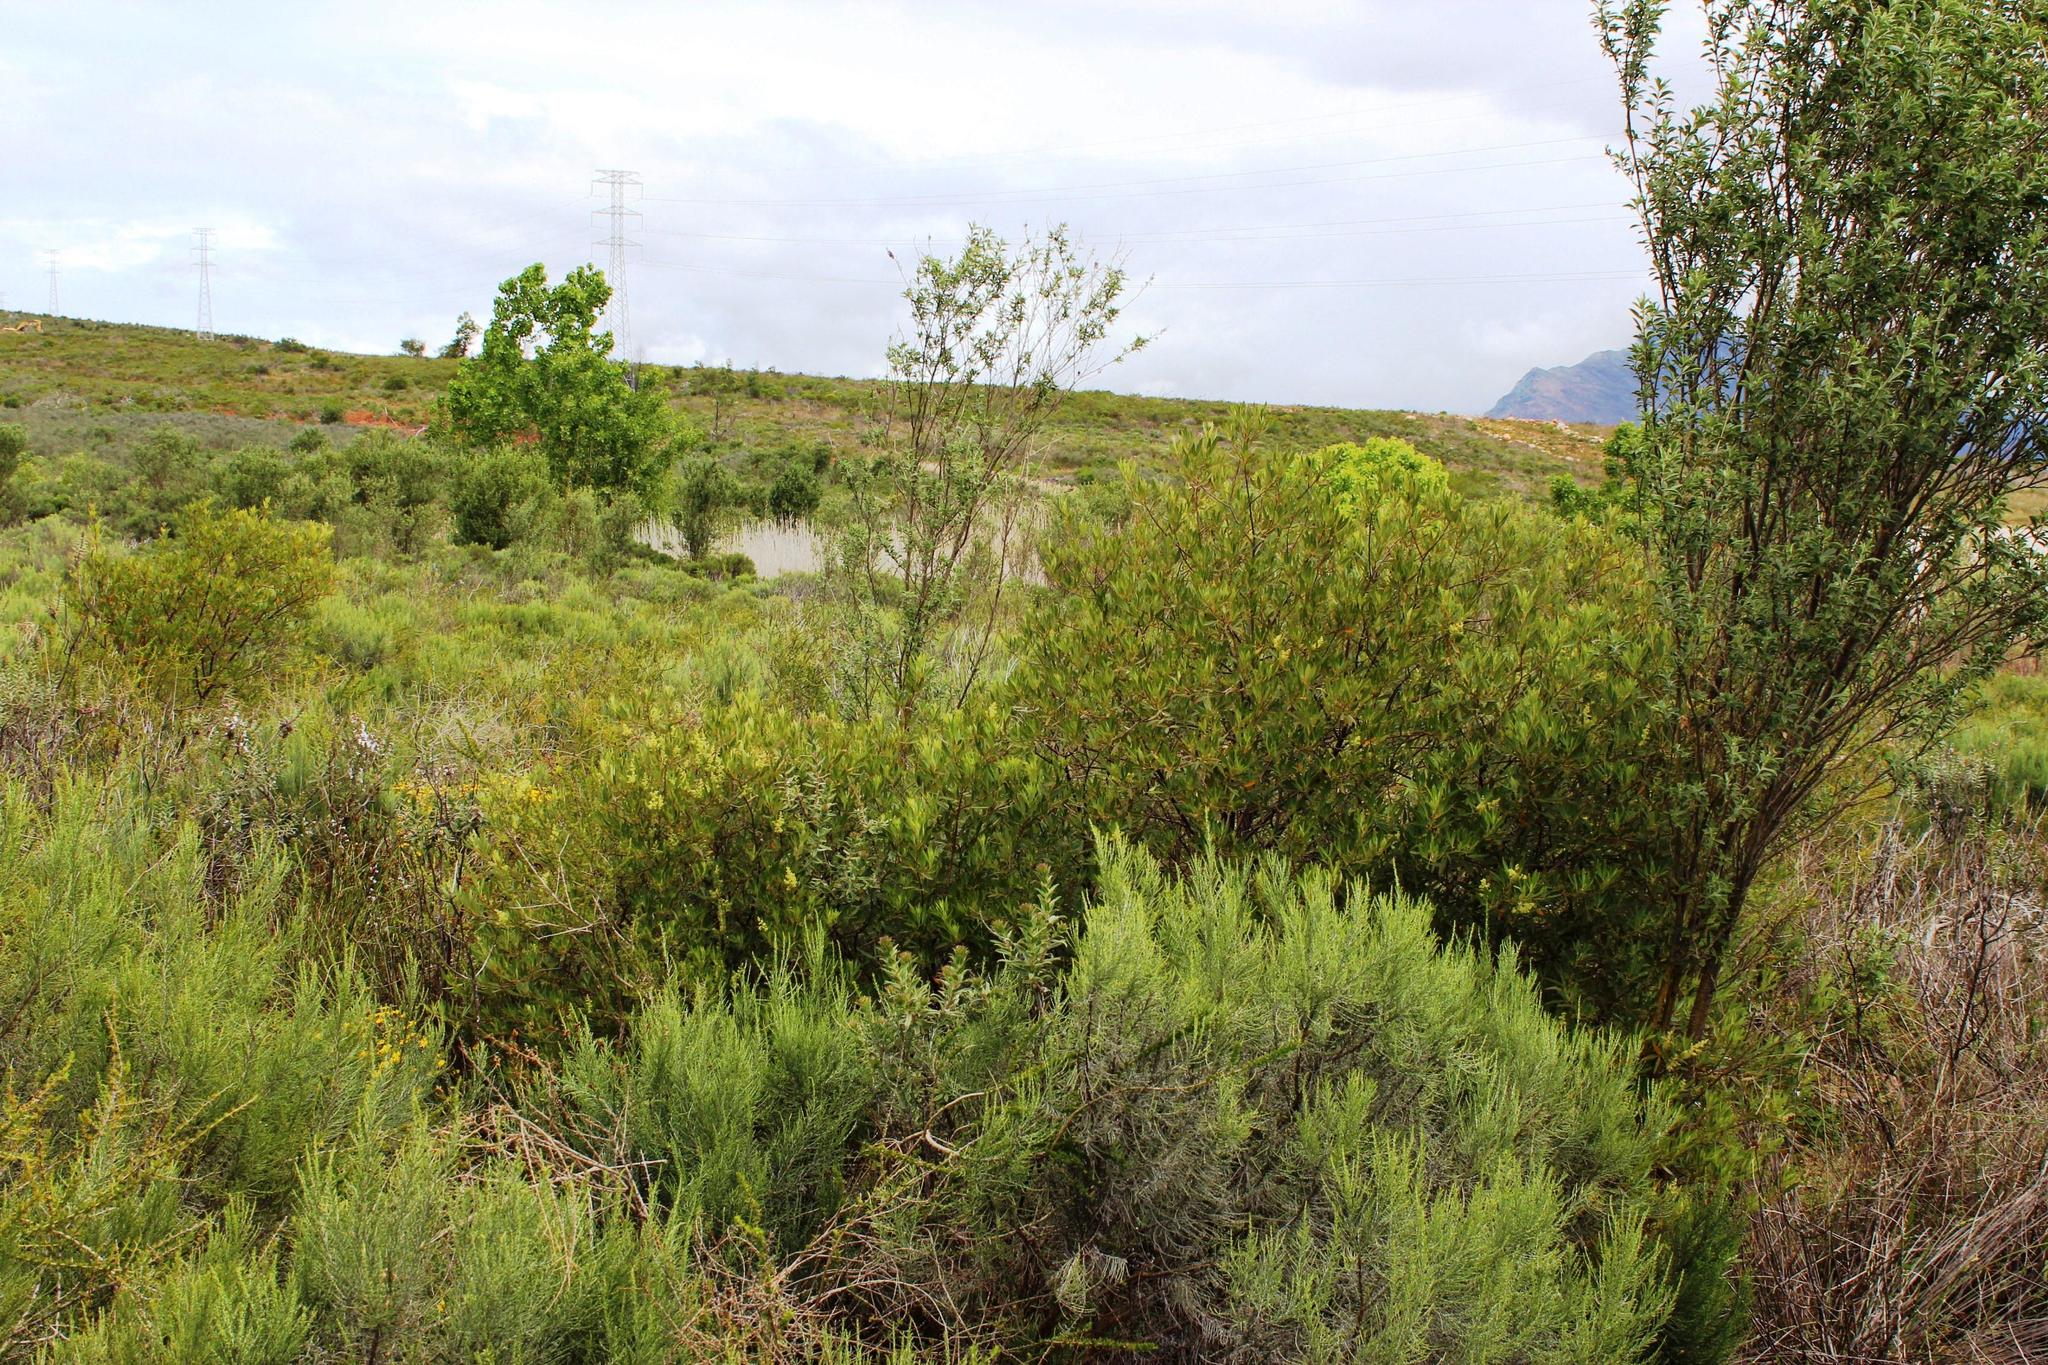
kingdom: Plantae
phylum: Tracheophyta
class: Magnoliopsida
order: Sapindales
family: Anacardiaceae
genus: Searsia
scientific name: Searsia angustifolia
